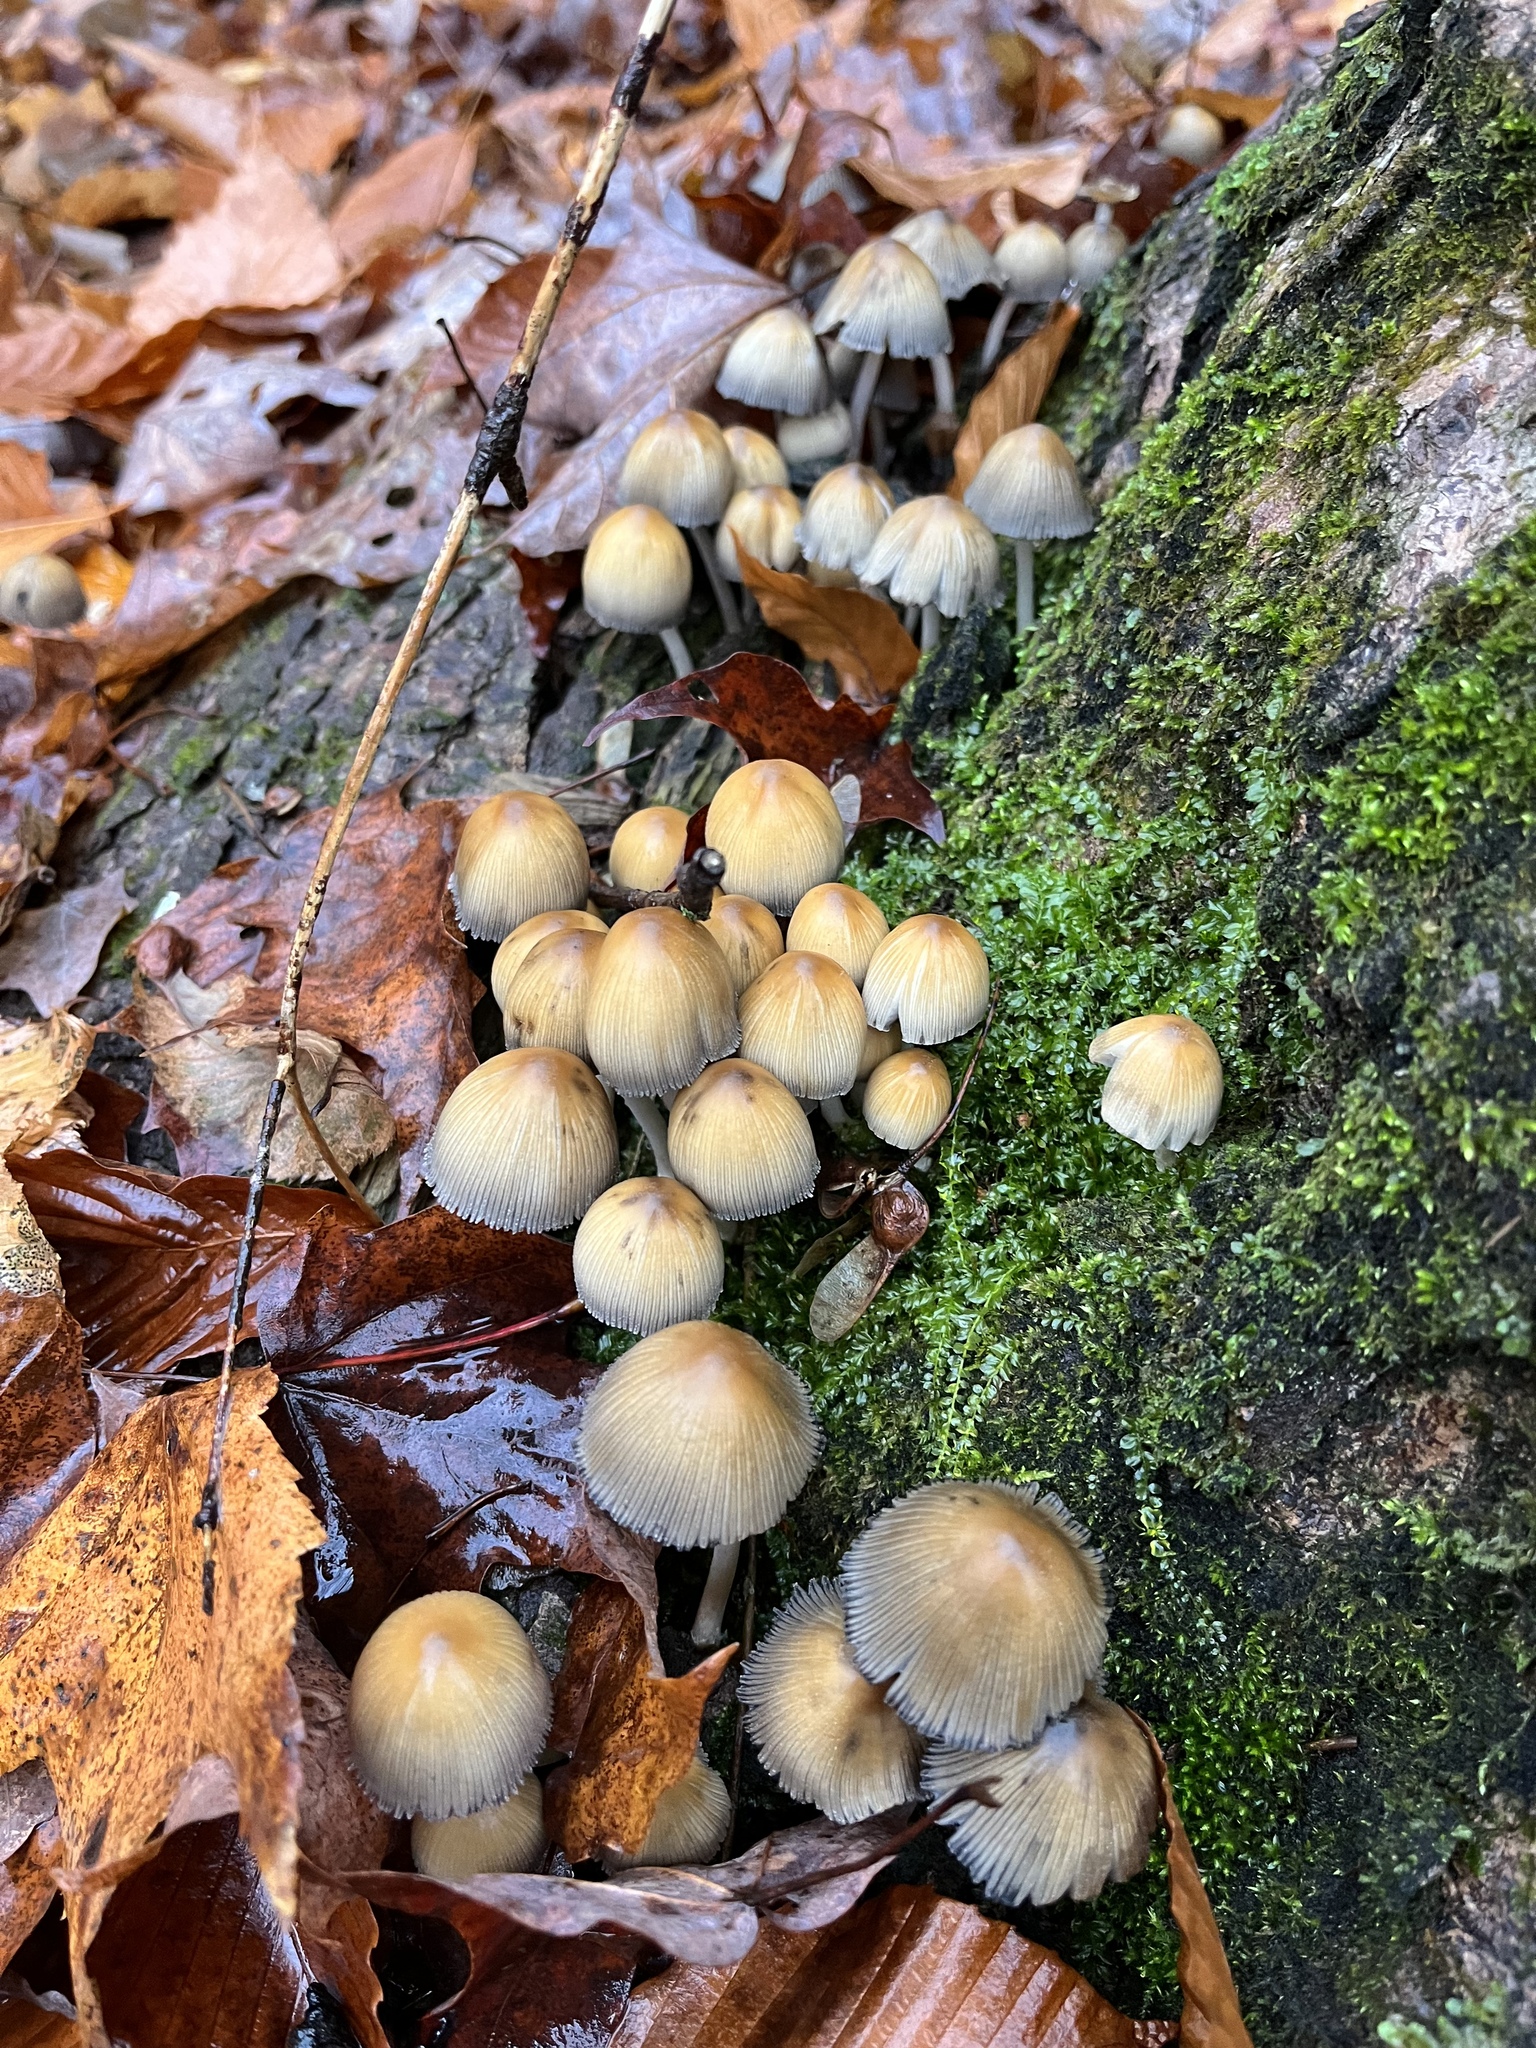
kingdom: Fungi
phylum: Basidiomycota
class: Agaricomycetes
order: Agaricales
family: Psathyrellaceae
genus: Coprinellus
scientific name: Coprinellus micaceus
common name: Glistening ink-cap
